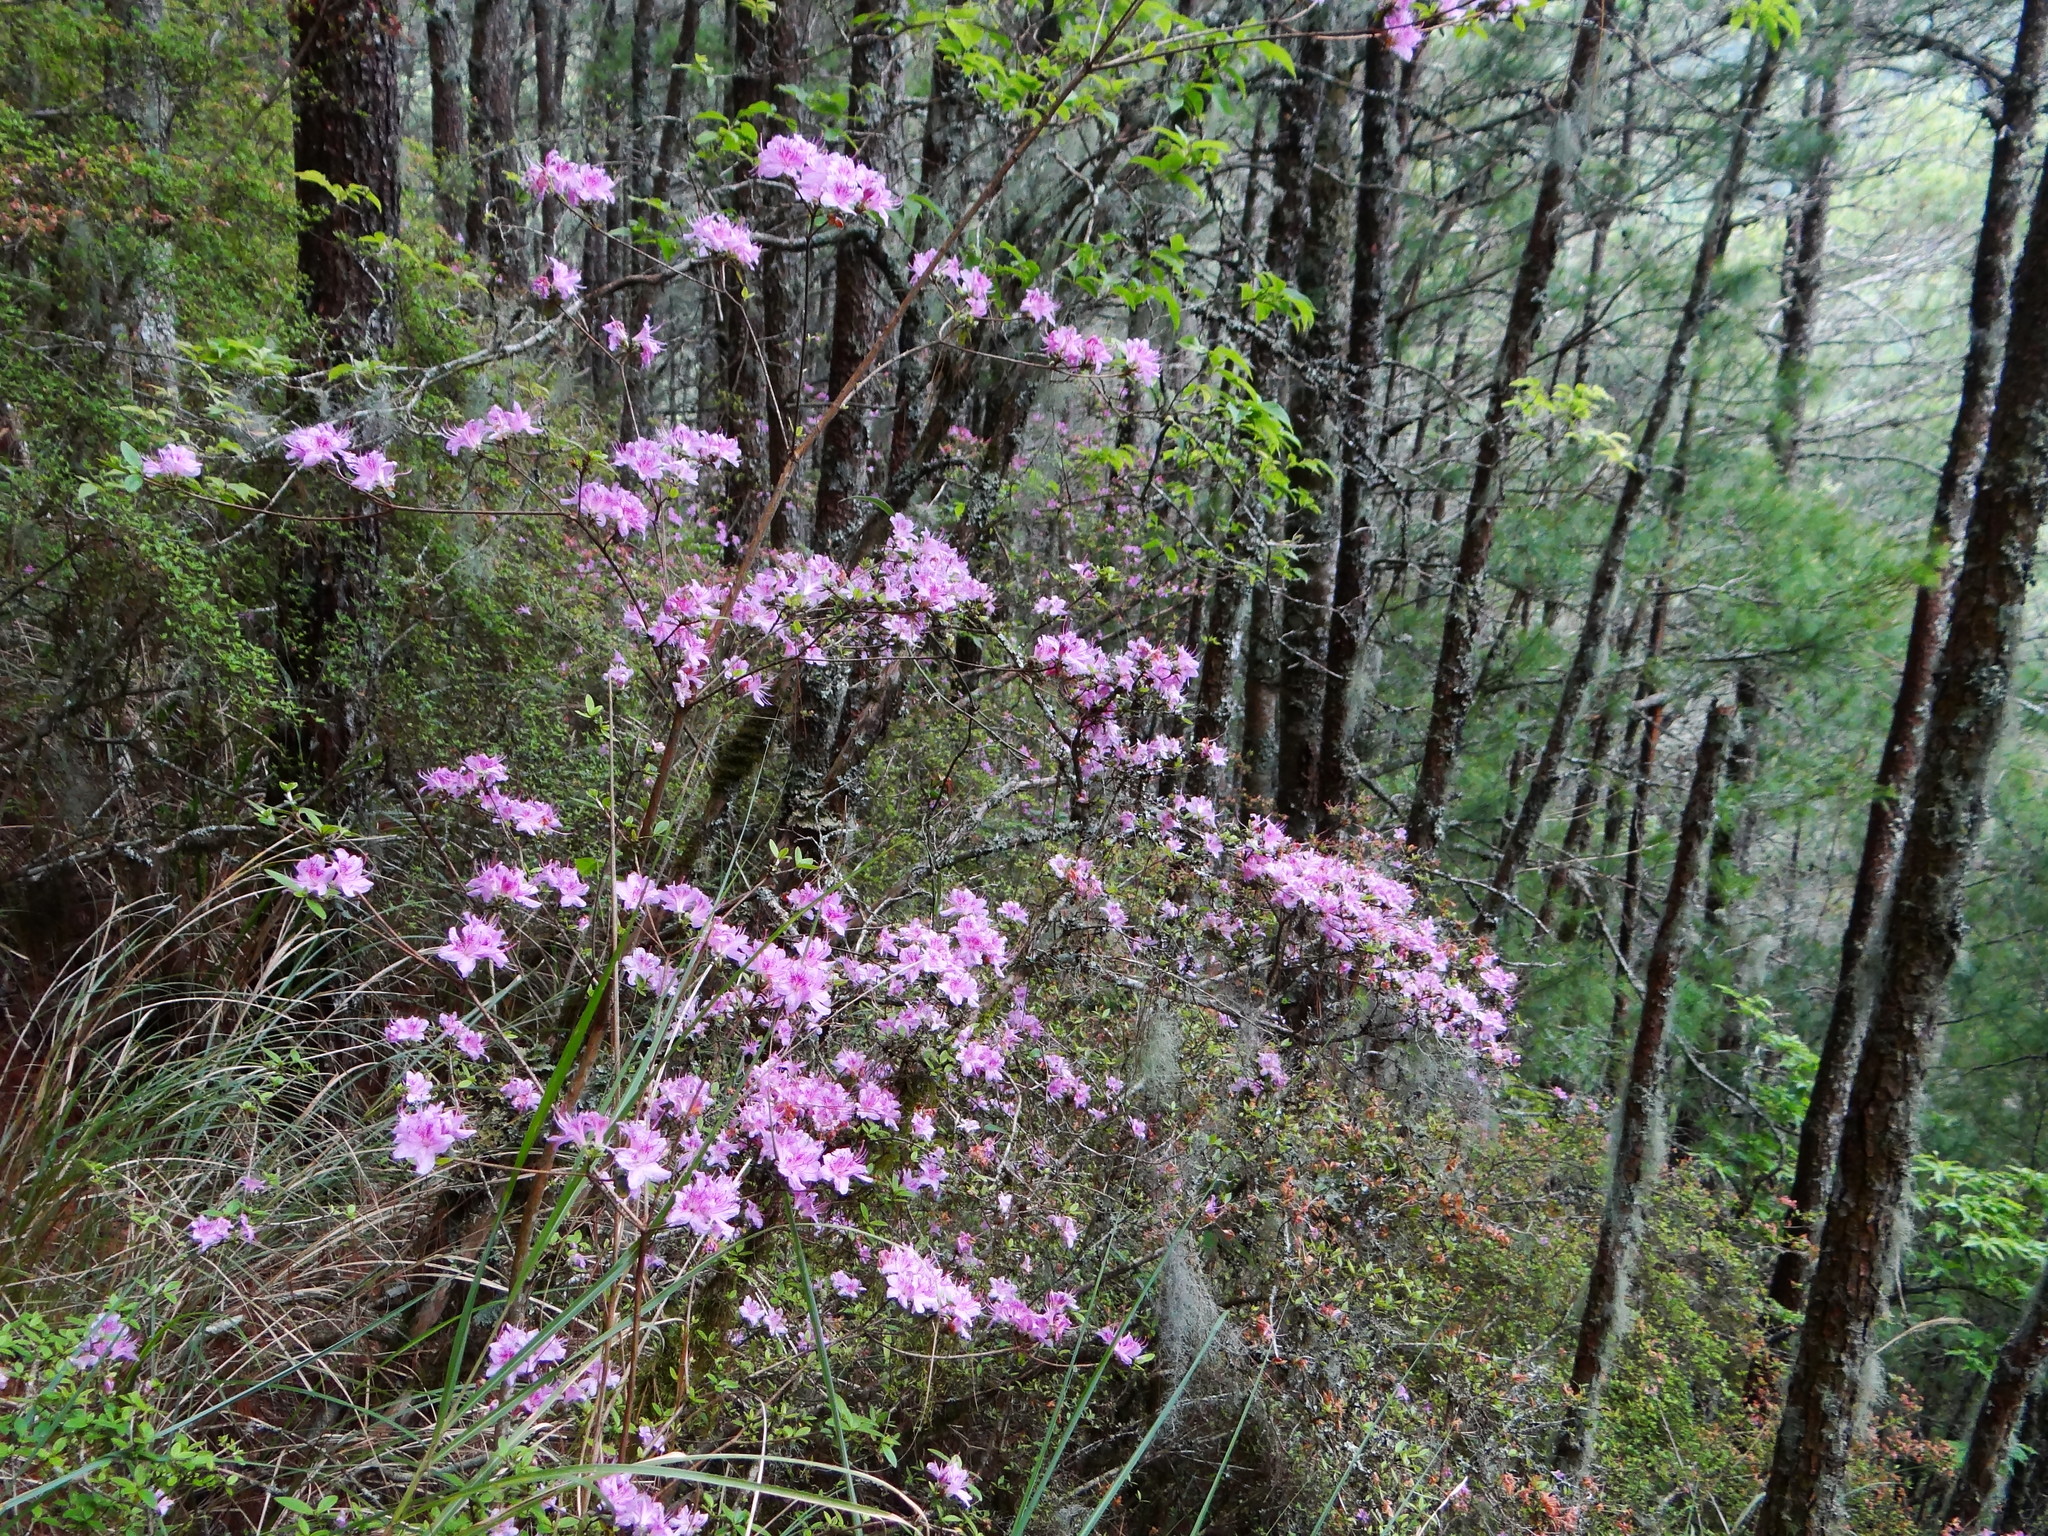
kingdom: Plantae
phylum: Tracheophyta
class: Magnoliopsida
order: Ericales
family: Ericaceae
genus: Rhododendron
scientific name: Rhododendron noriakianum
